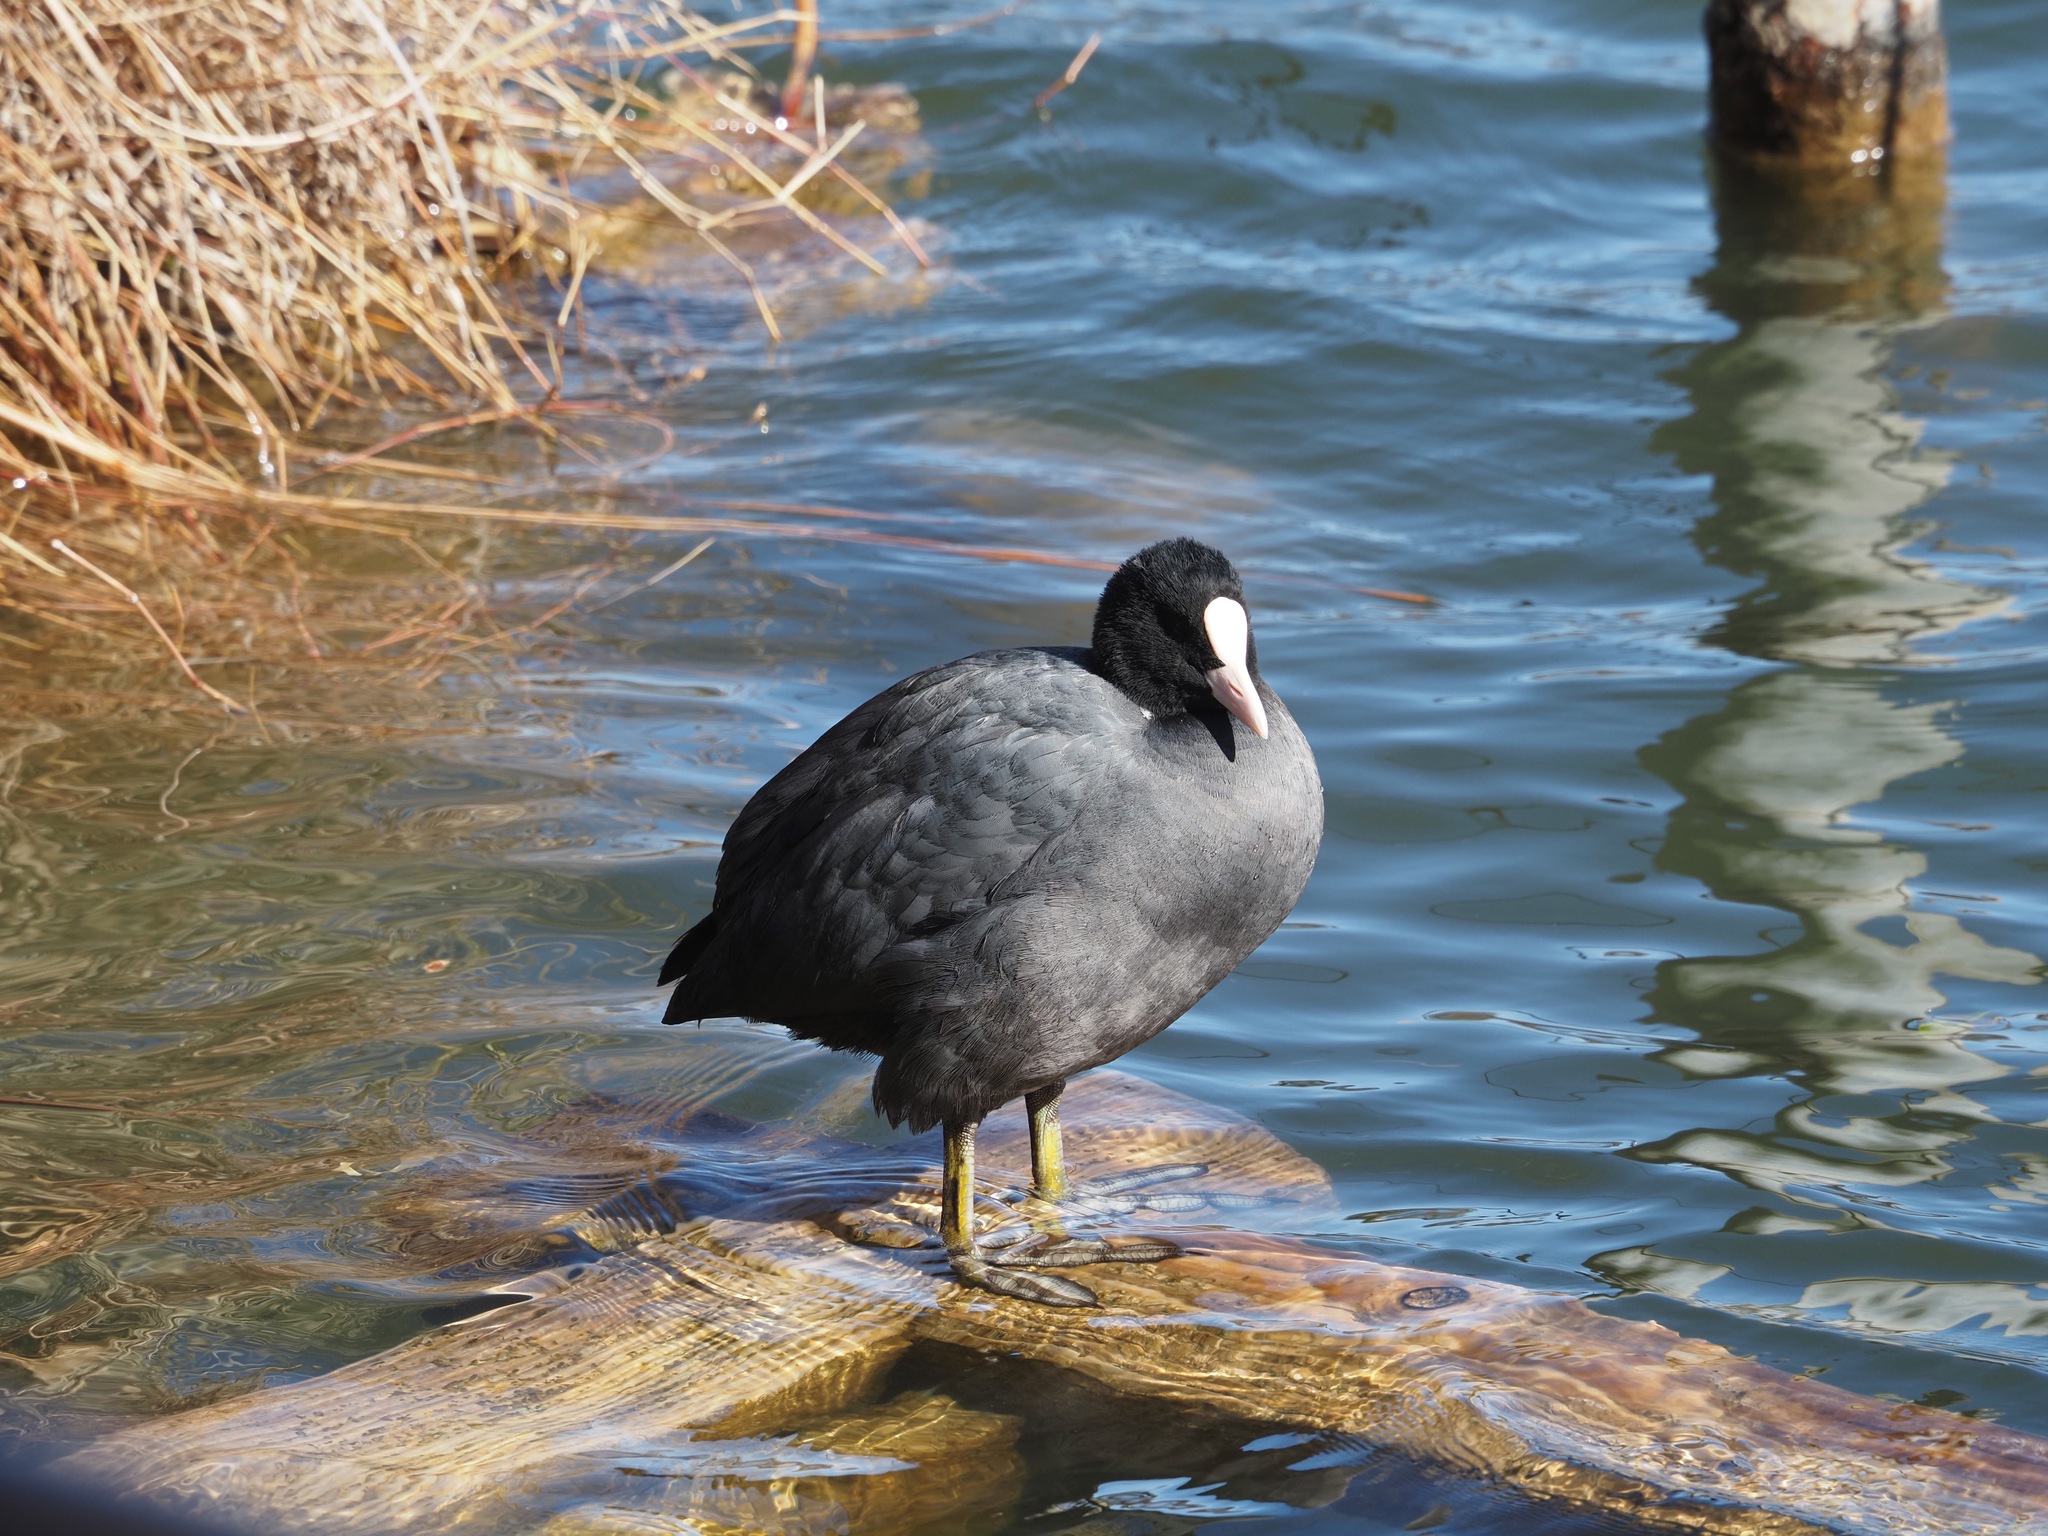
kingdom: Animalia
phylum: Chordata
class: Aves
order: Gruiformes
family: Rallidae
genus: Fulica
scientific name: Fulica atra
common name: Eurasian coot
